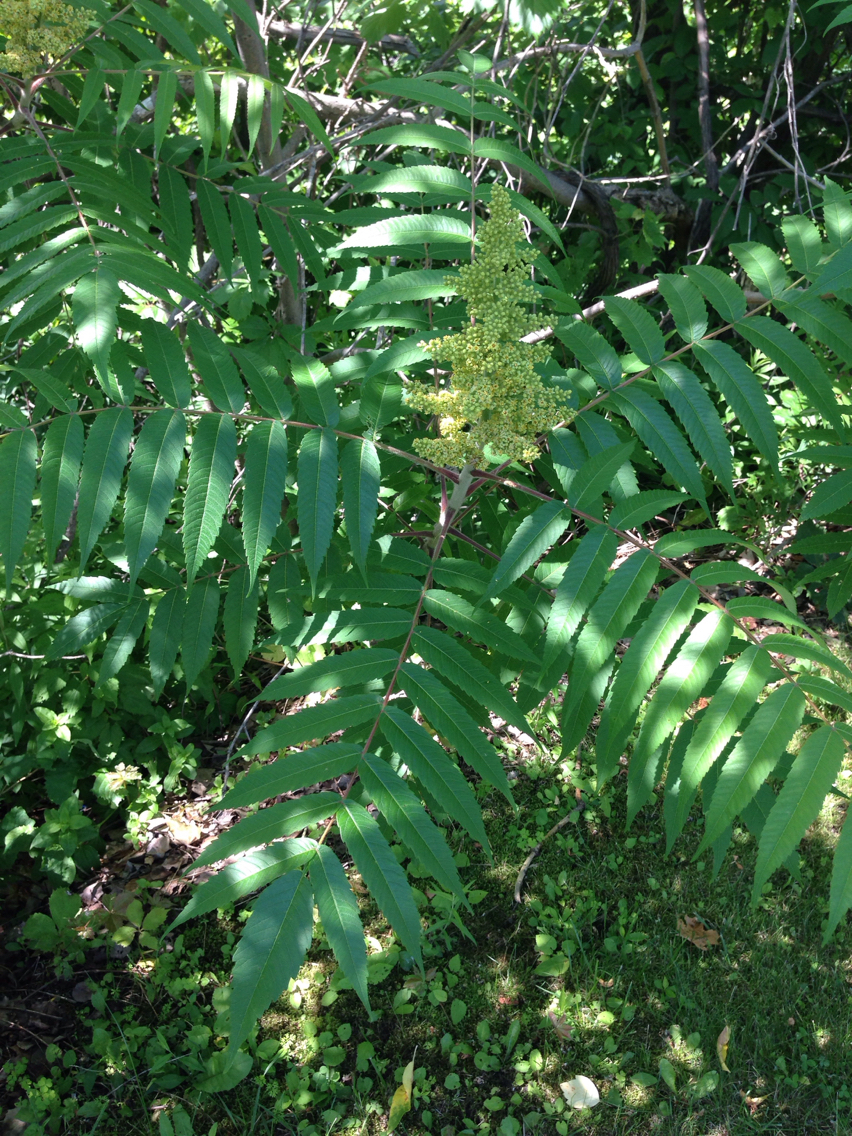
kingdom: Plantae
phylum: Tracheophyta
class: Magnoliopsida
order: Sapindales
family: Anacardiaceae
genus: Rhus
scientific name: Rhus typhina
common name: Staghorn sumac
